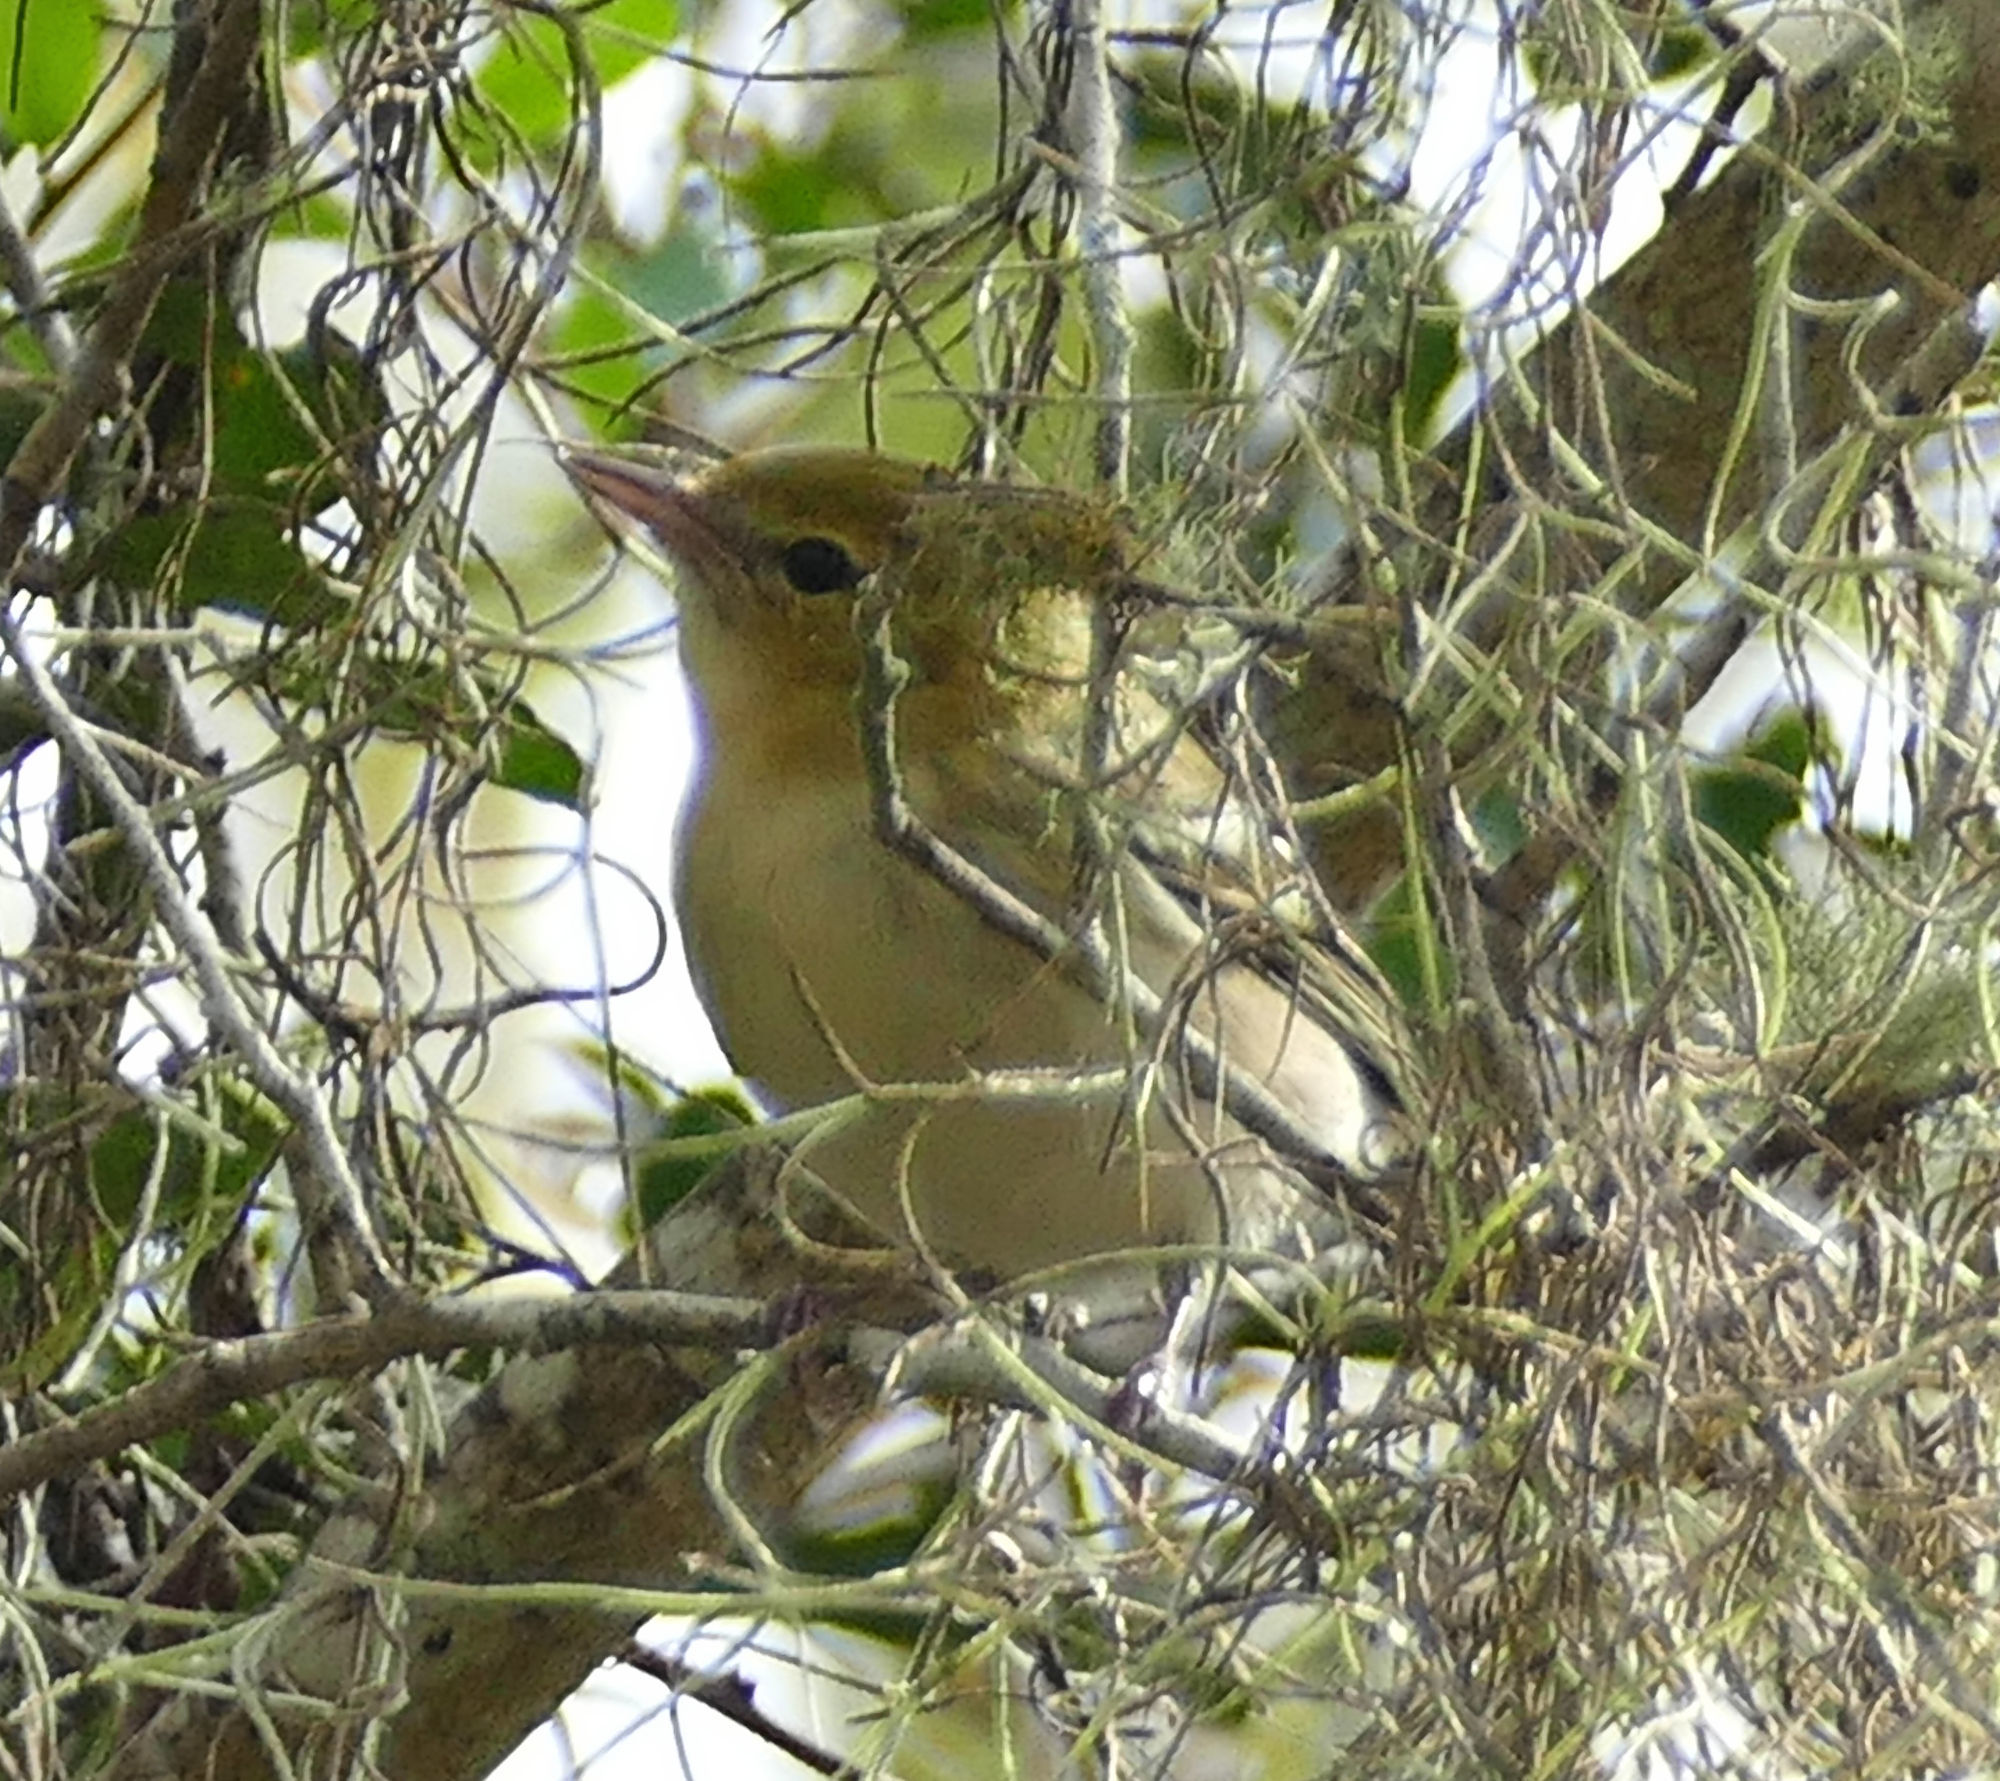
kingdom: Animalia
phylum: Chordata
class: Aves
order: Passeriformes
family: Parulidae
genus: Setophaga
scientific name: Setophaga castanea
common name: Bay-breasted warbler
